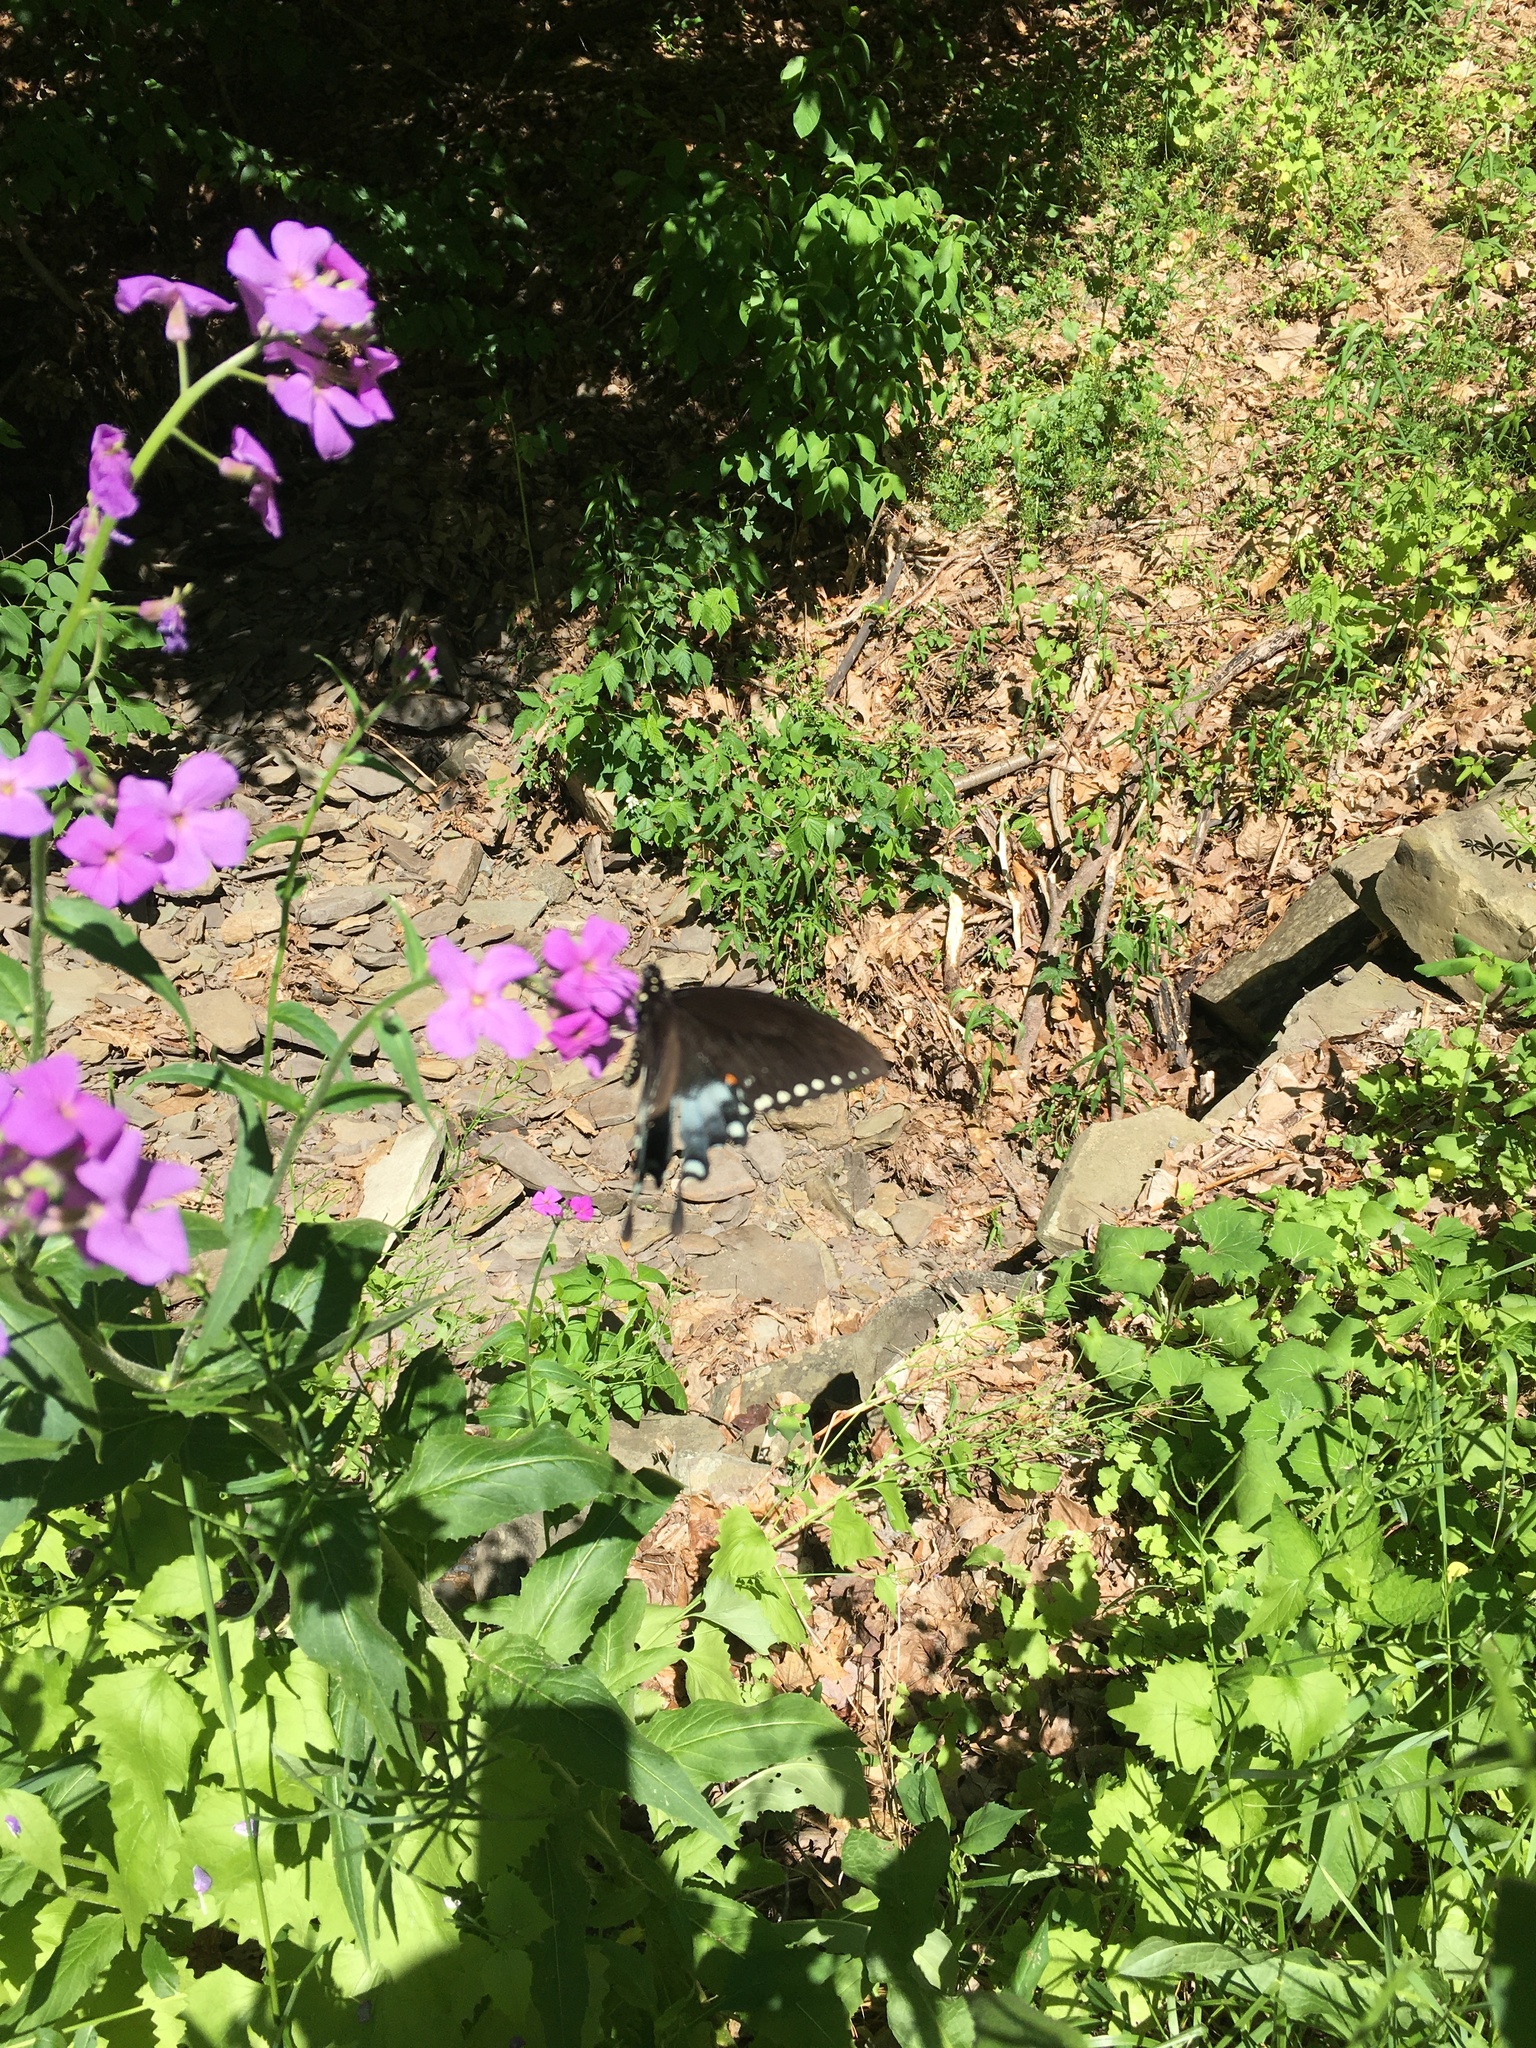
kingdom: Animalia
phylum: Arthropoda
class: Insecta
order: Lepidoptera
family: Papilionidae
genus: Papilio
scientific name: Papilio troilus
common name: Spicebush swallowtail
